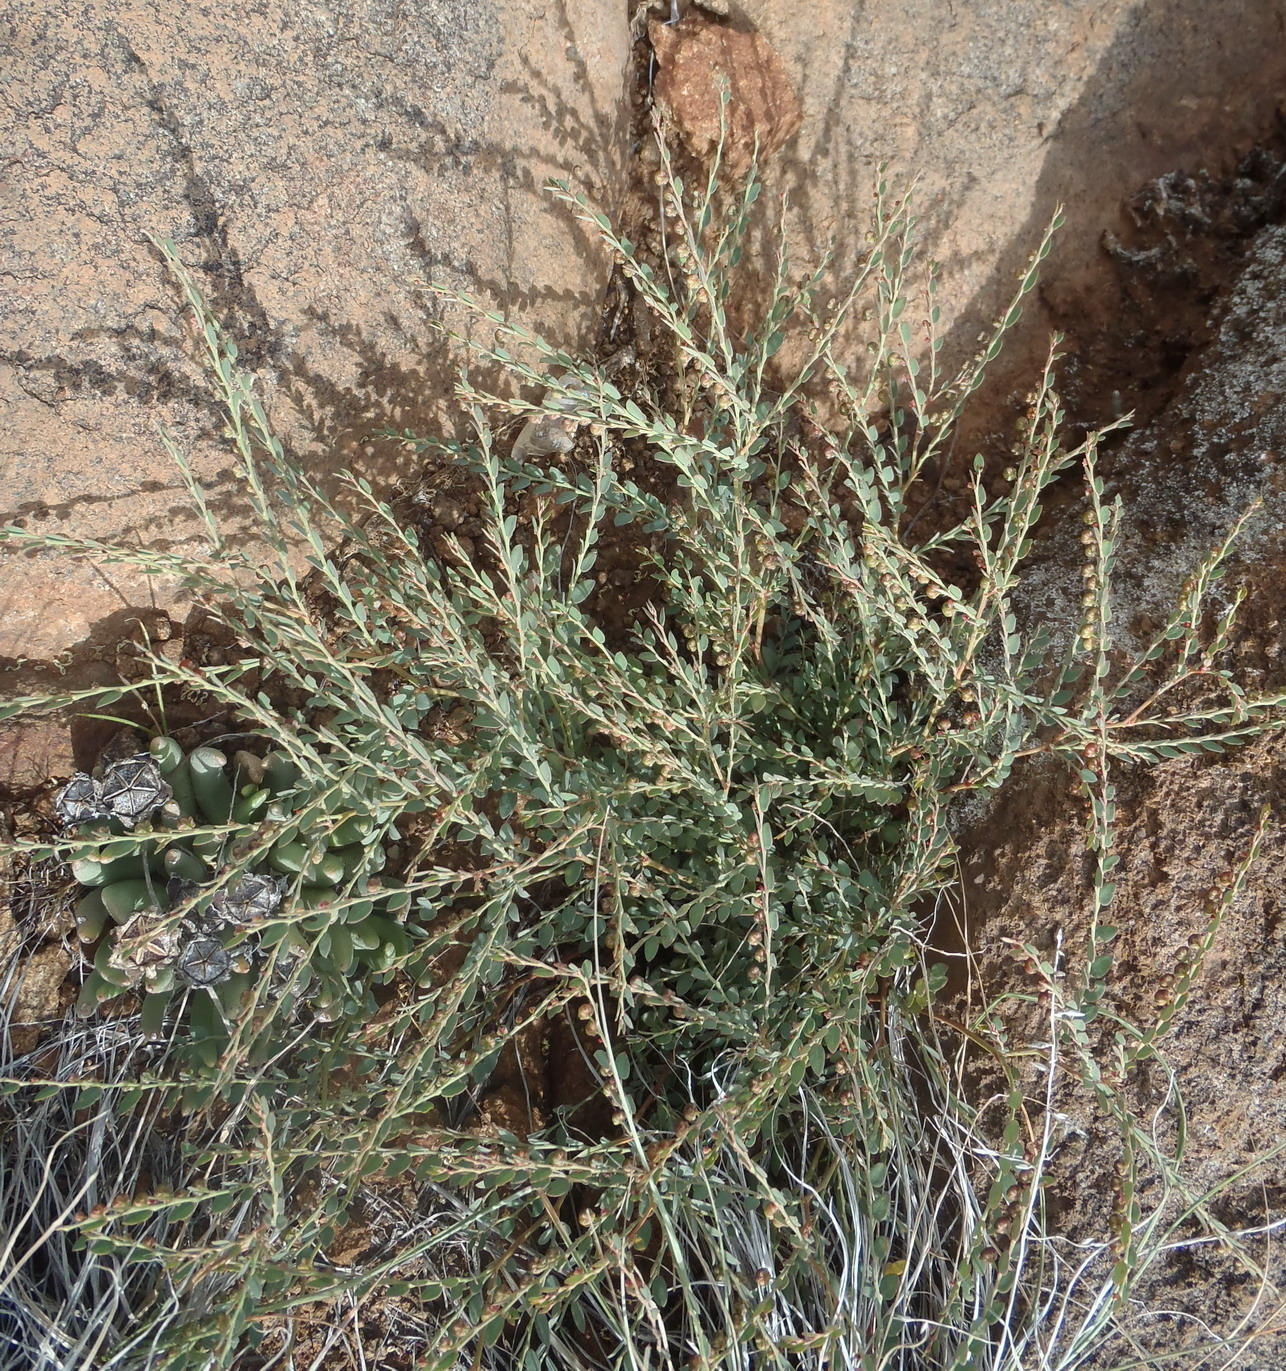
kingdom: Plantae
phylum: Tracheophyta
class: Magnoliopsida
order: Malpighiales
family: Phyllanthaceae
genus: Phyllanthus
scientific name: Phyllanthus parvulus
